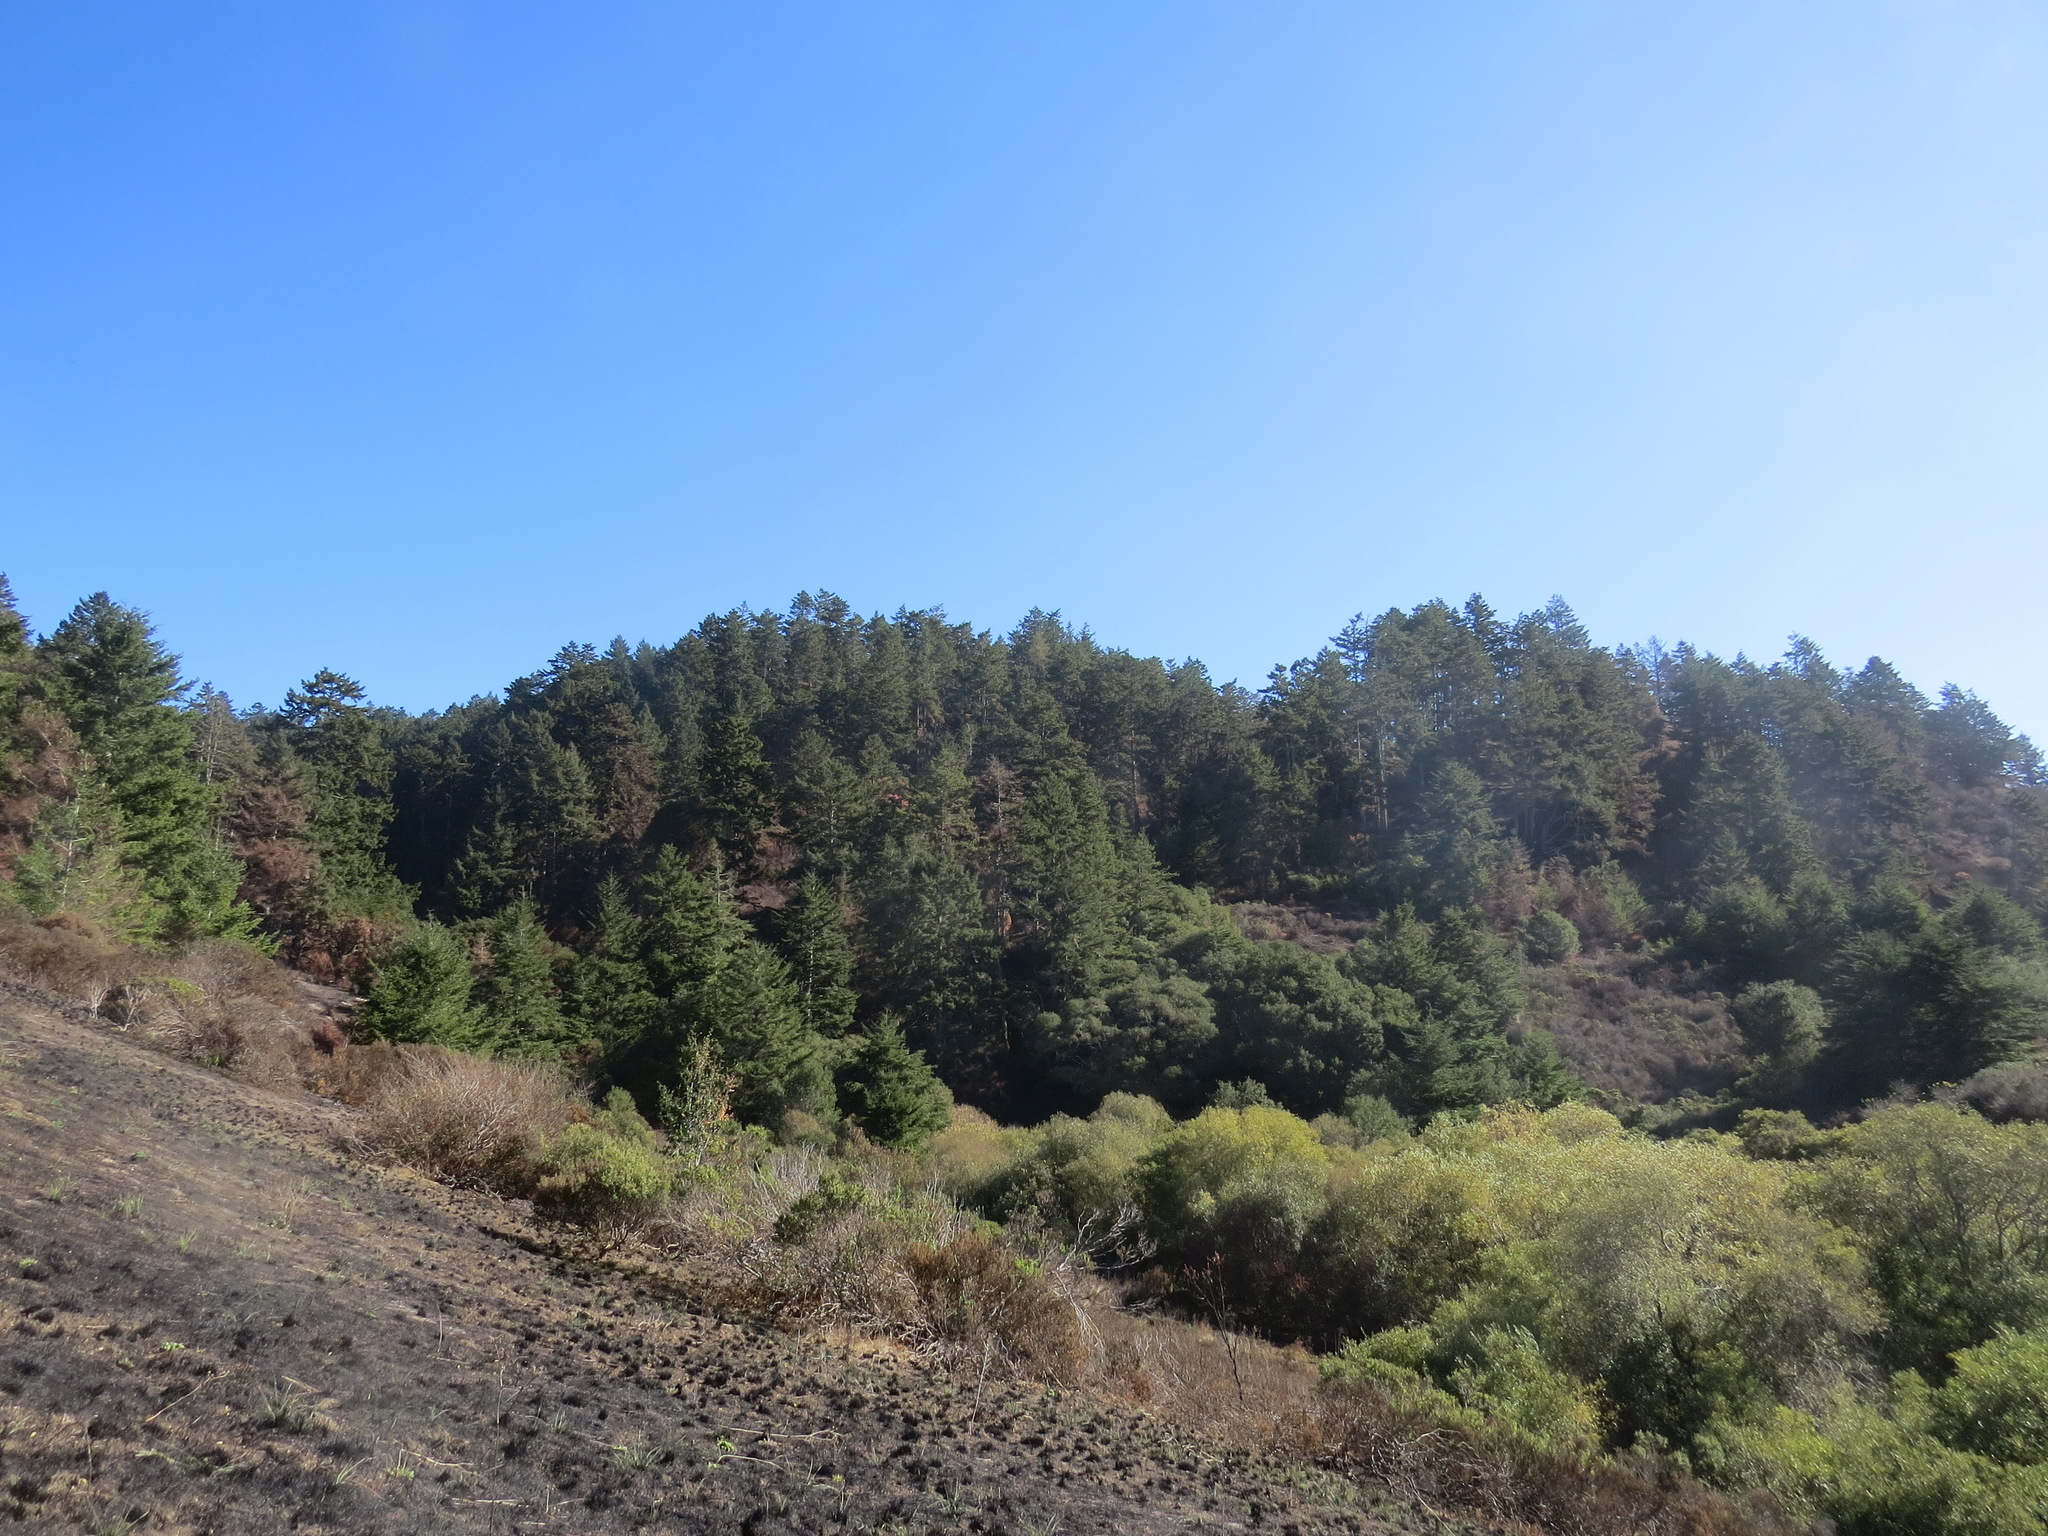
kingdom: Plantae
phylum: Tracheophyta
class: Pinopsida
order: Pinales
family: Pinaceae
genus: Pseudotsuga
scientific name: Pseudotsuga menziesii
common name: Douglas fir
